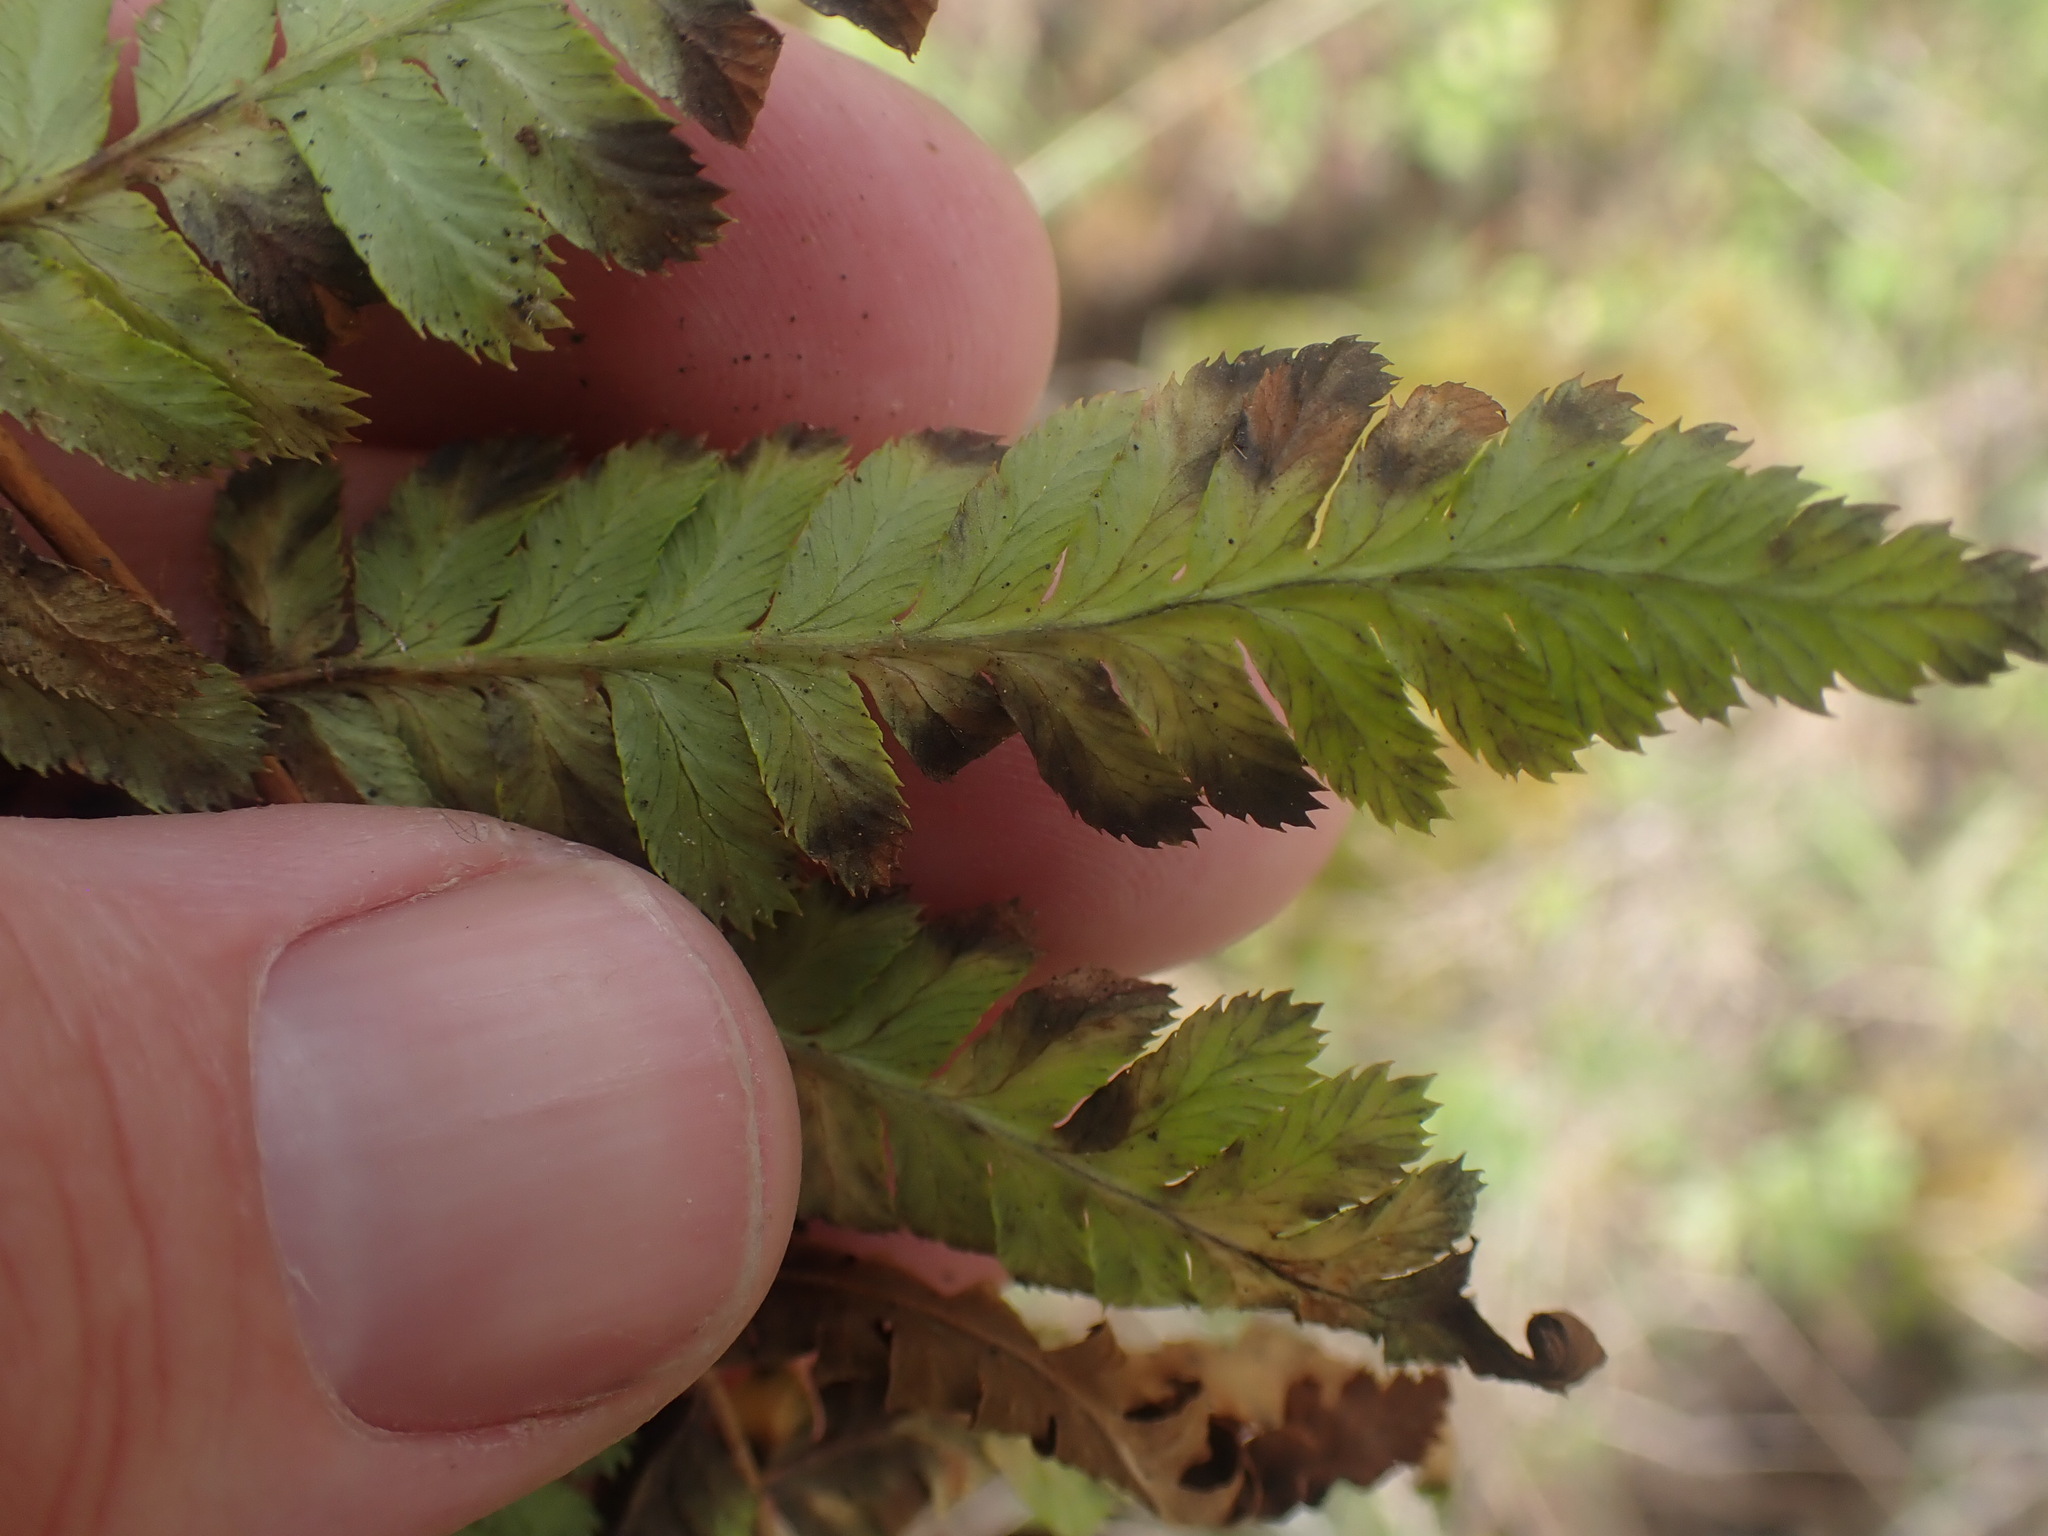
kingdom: Plantae
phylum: Tracheophyta
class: Polypodiopsida
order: Polypodiales
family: Dryopteridaceae
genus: Dryopteris
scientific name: Dryopteris arguta
